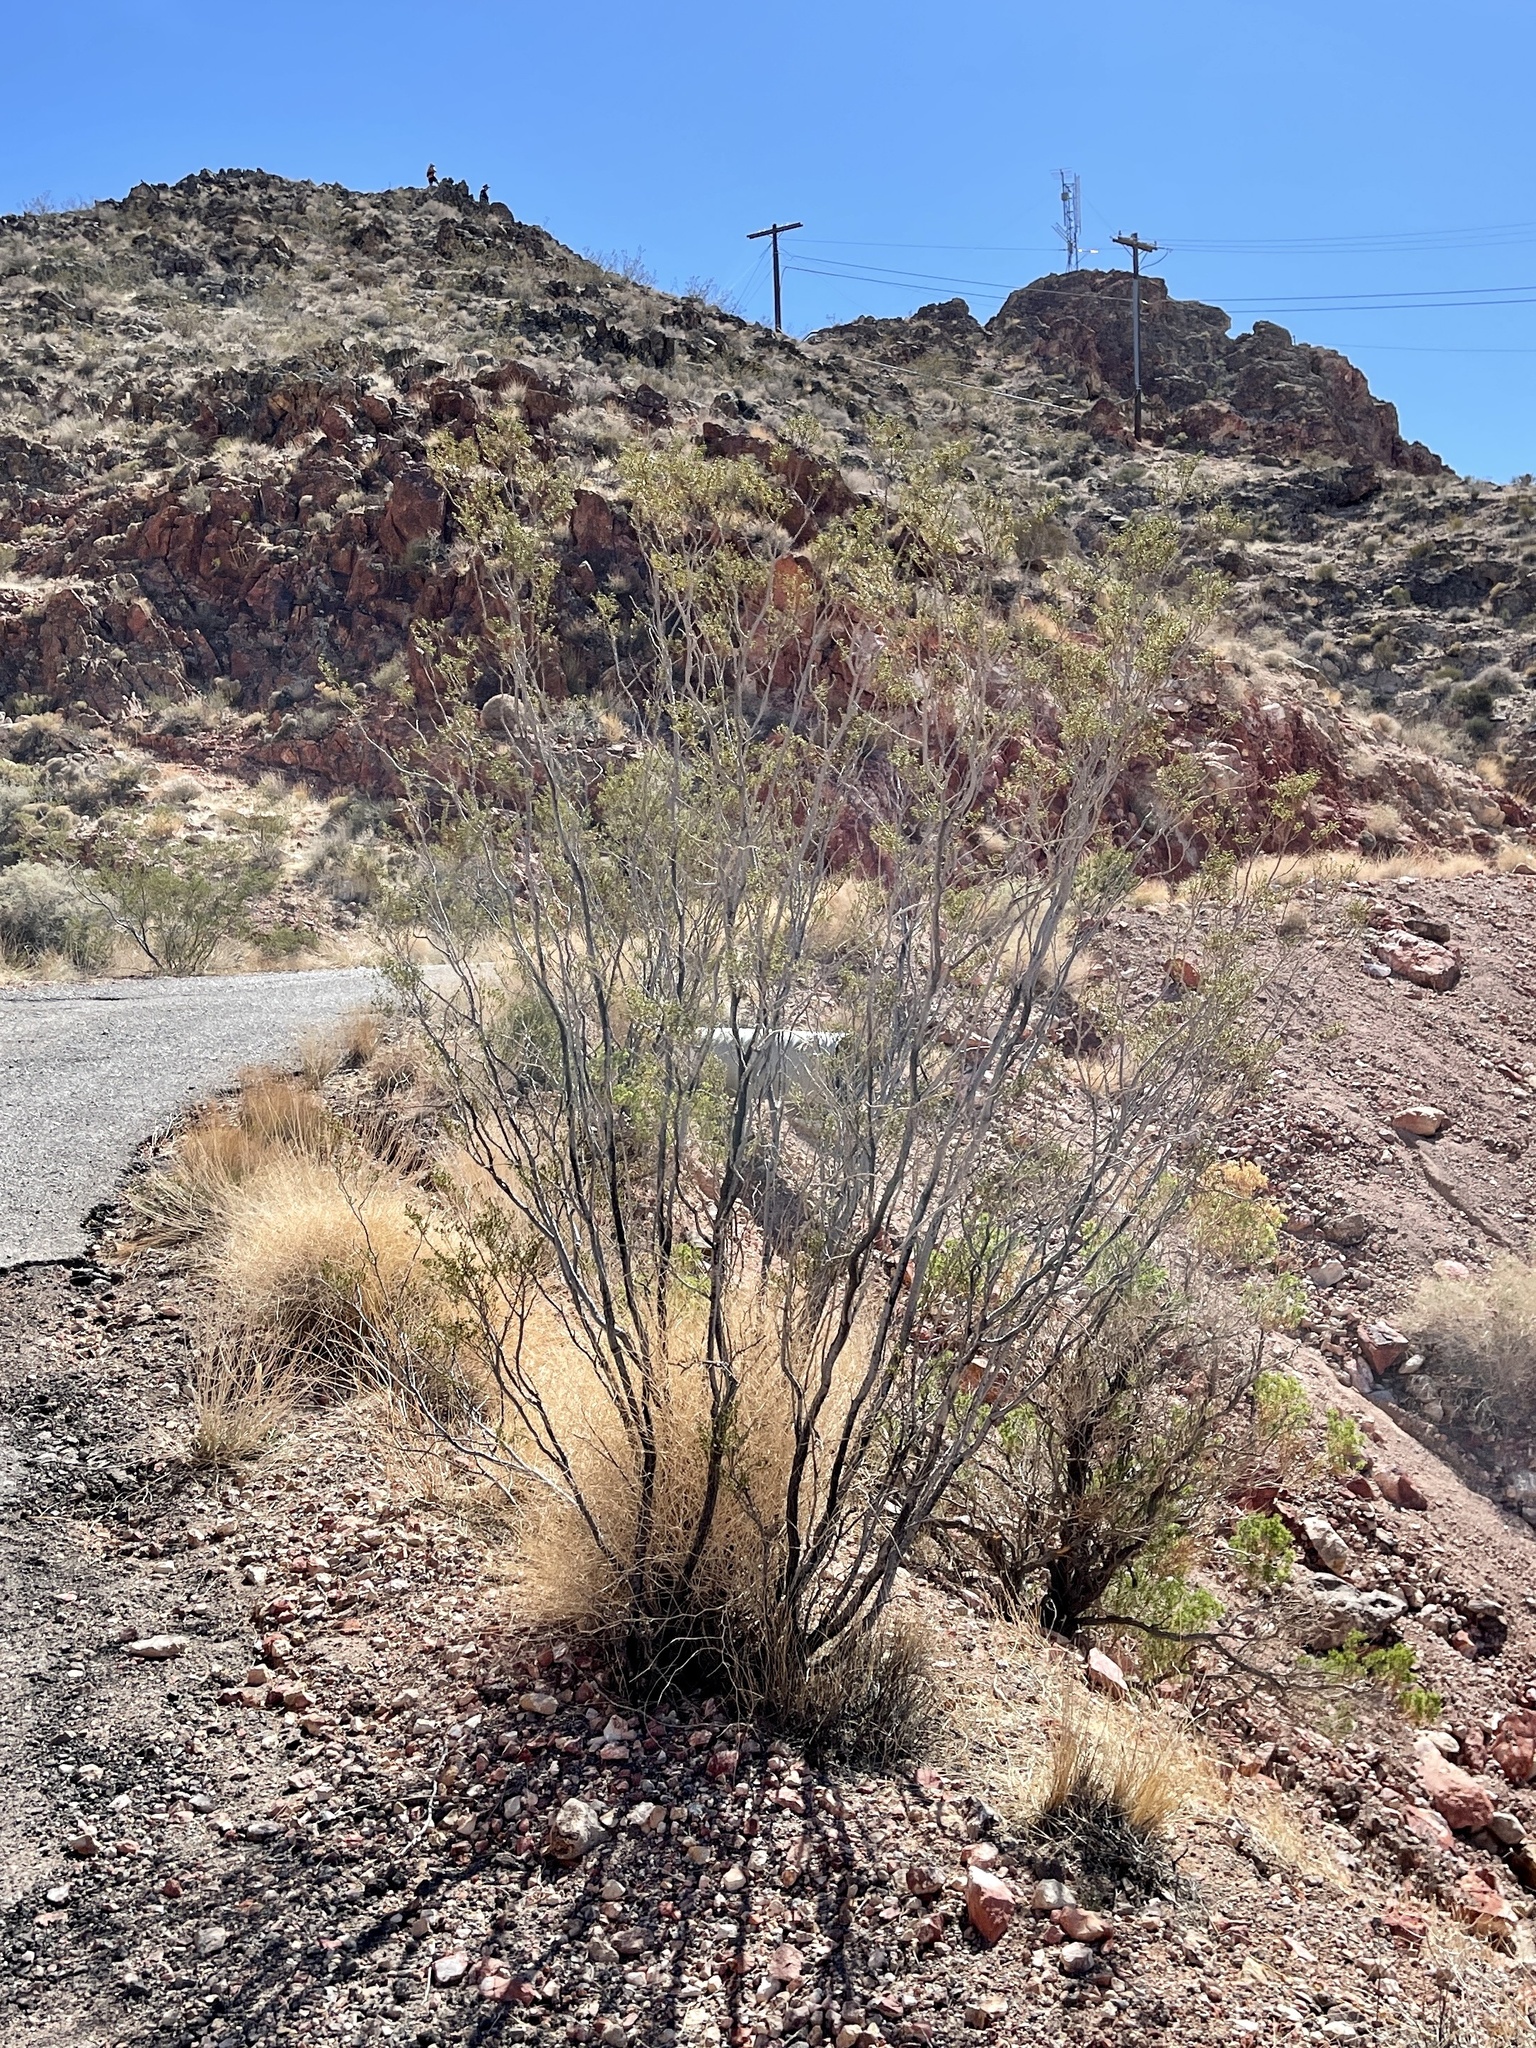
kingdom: Plantae
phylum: Tracheophyta
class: Magnoliopsida
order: Zygophyllales
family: Zygophyllaceae
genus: Larrea
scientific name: Larrea tridentata
